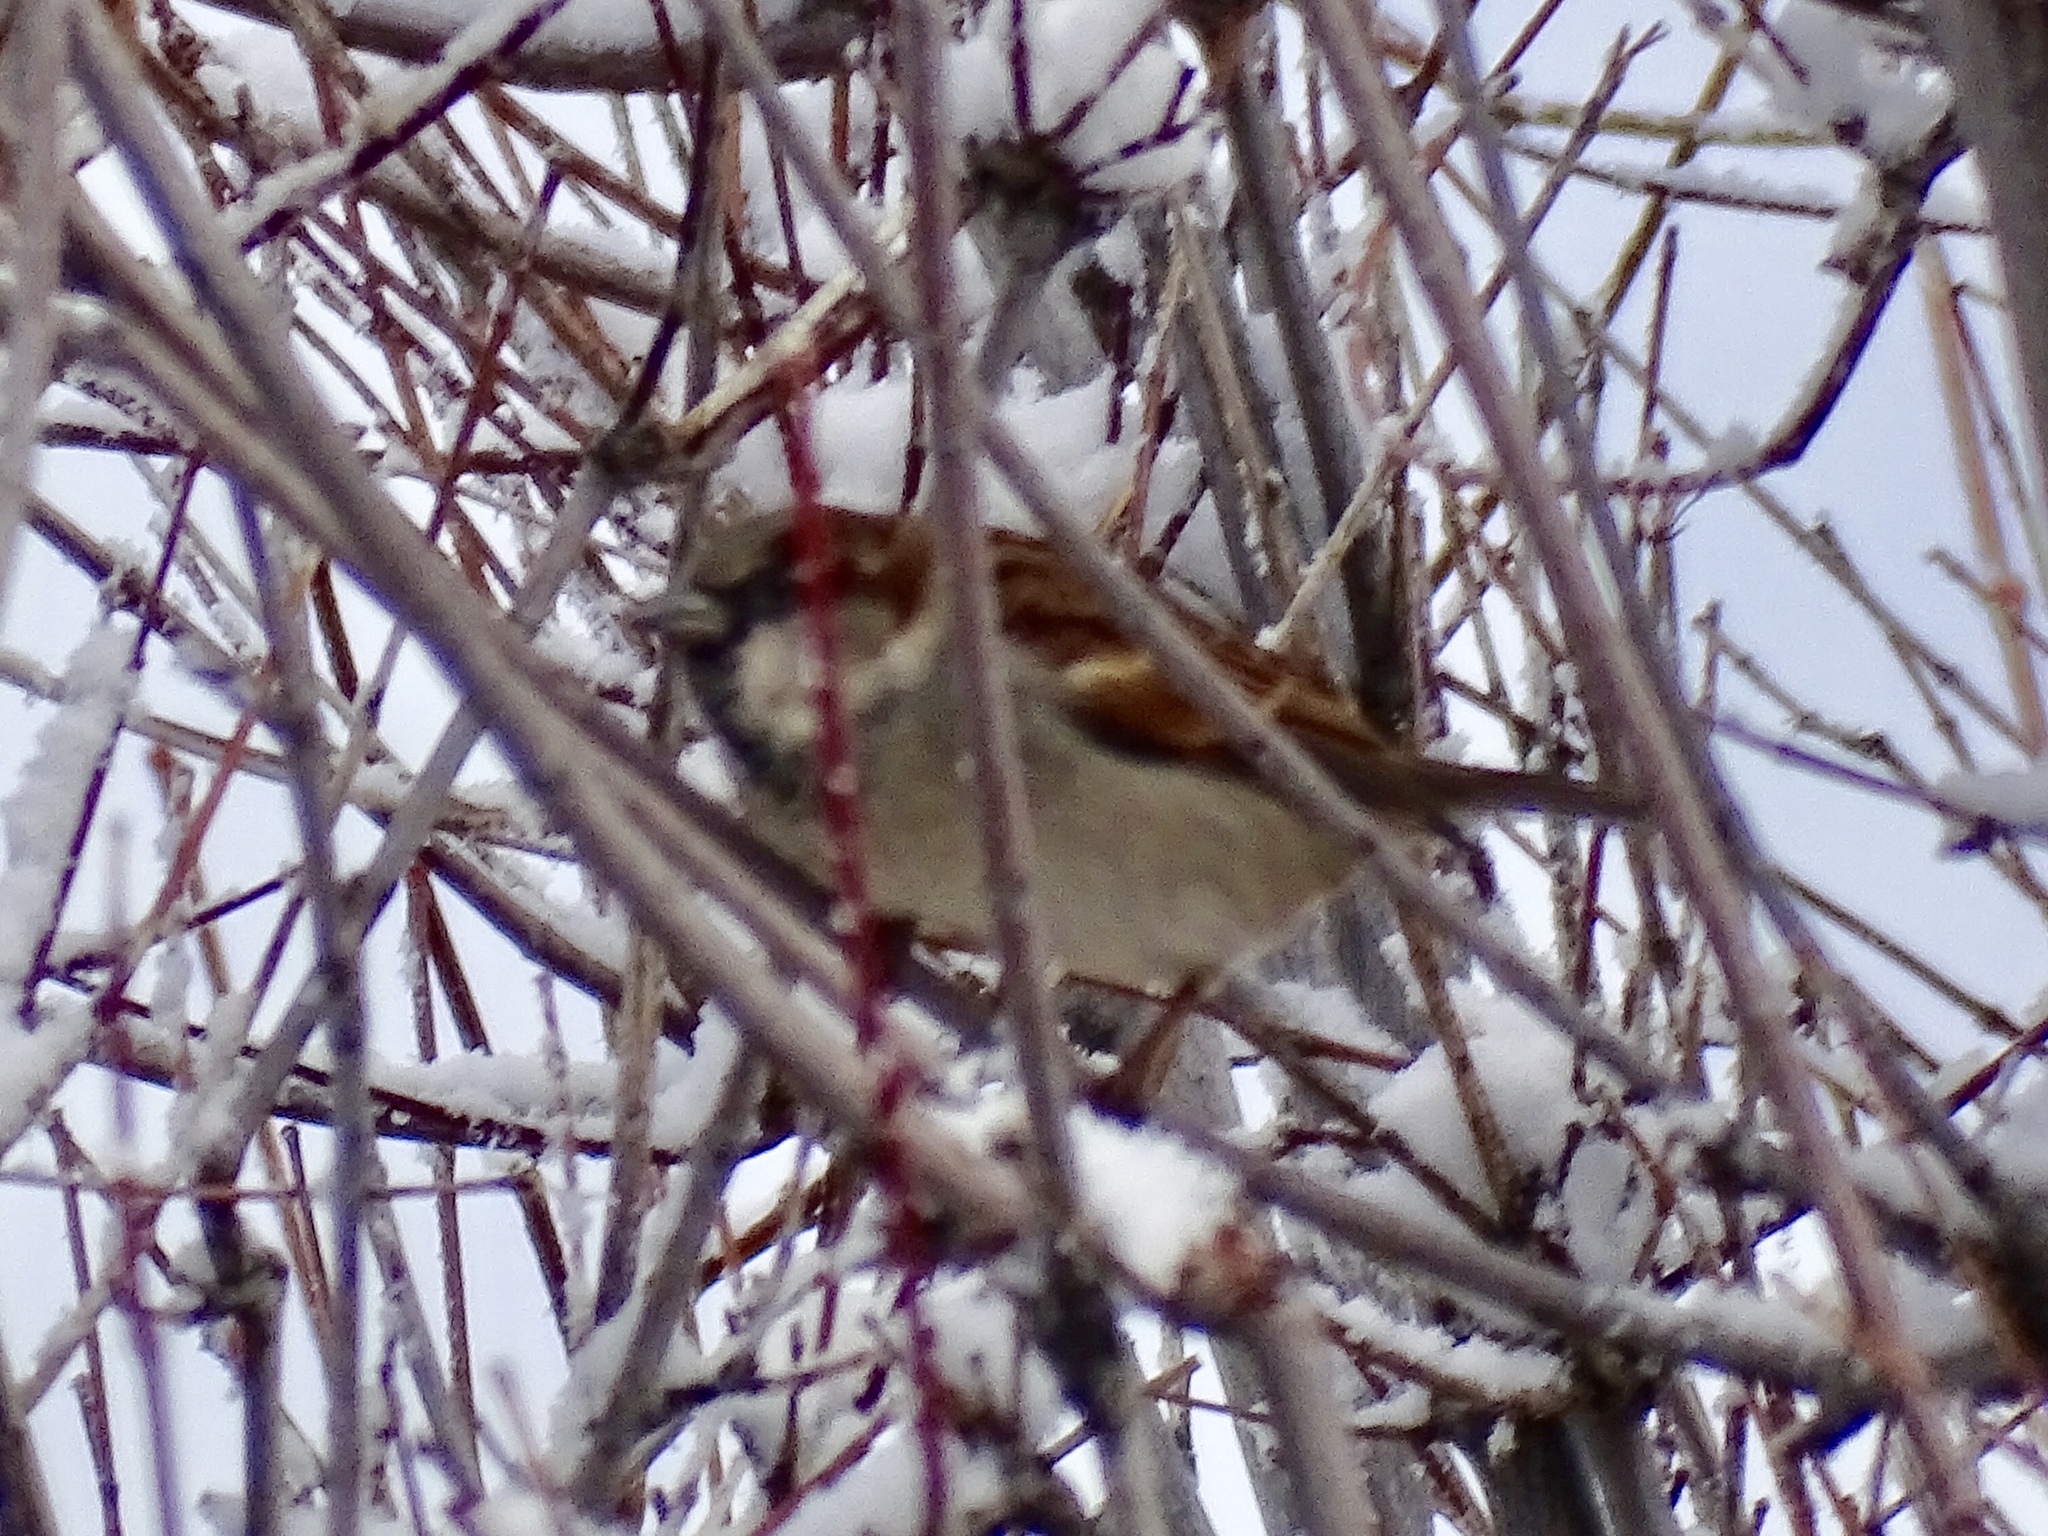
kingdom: Animalia
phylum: Chordata
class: Aves
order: Passeriformes
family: Passeridae
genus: Passer
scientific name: Passer domesticus
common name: House sparrow
